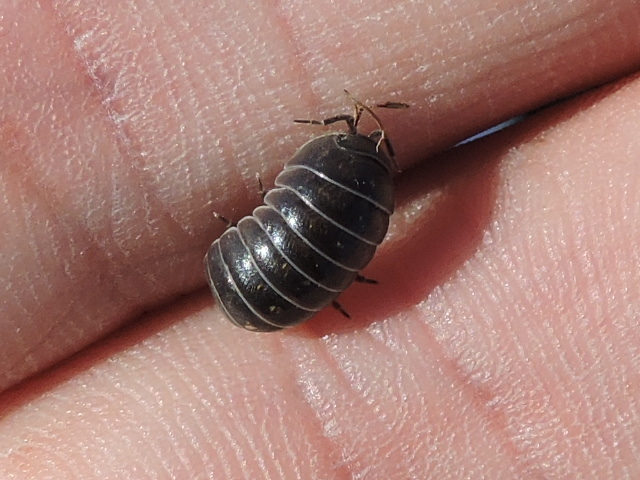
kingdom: Animalia
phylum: Arthropoda
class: Malacostraca
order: Isopoda
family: Armadillidiidae
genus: Armadillidium
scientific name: Armadillidium vulgare
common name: Common pill woodlouse
